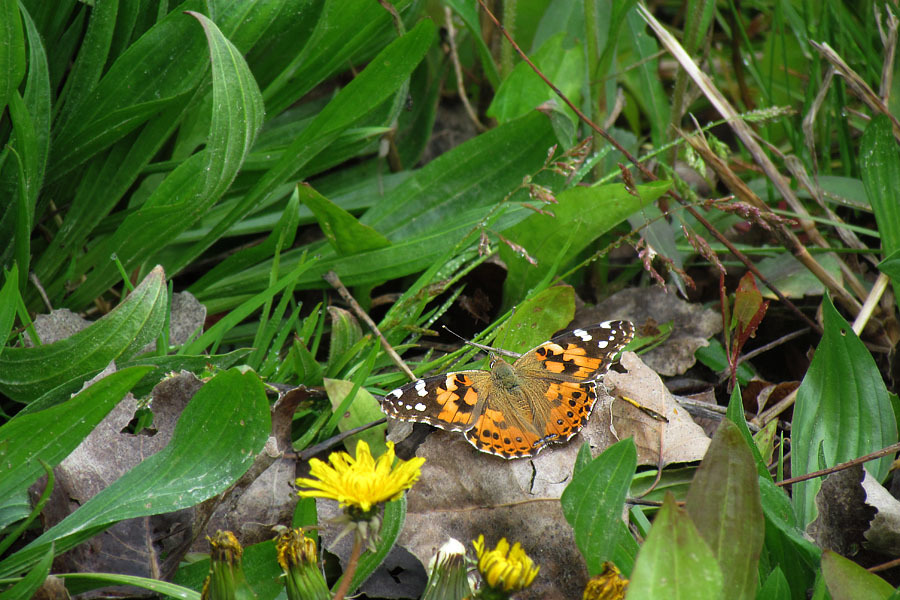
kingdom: Animalia
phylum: Arthropoda
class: Insecta
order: Lepidoptera
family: Nymphalidae
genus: Vanessa
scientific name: Vanessa cardui
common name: Painted lady
